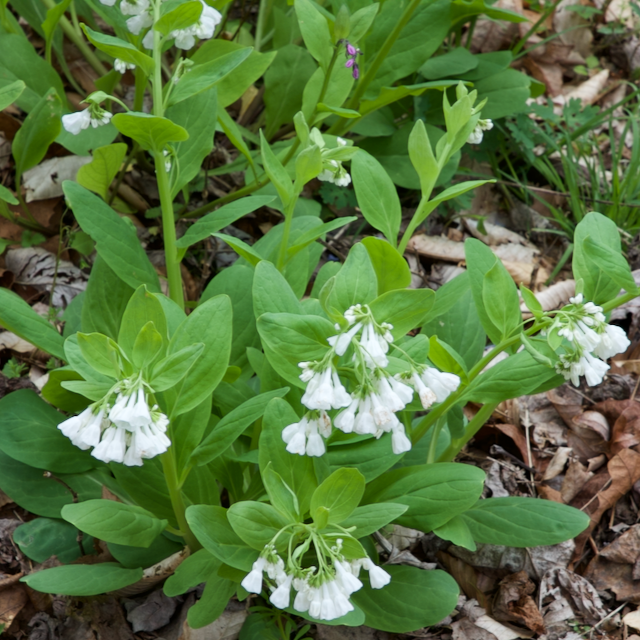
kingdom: Plantae
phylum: Tracheophyta
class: Magnoliopsida
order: Boraginales
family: Boraginaceae
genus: Mertensia
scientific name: Mertensia virginica
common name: Virginia bluebells
